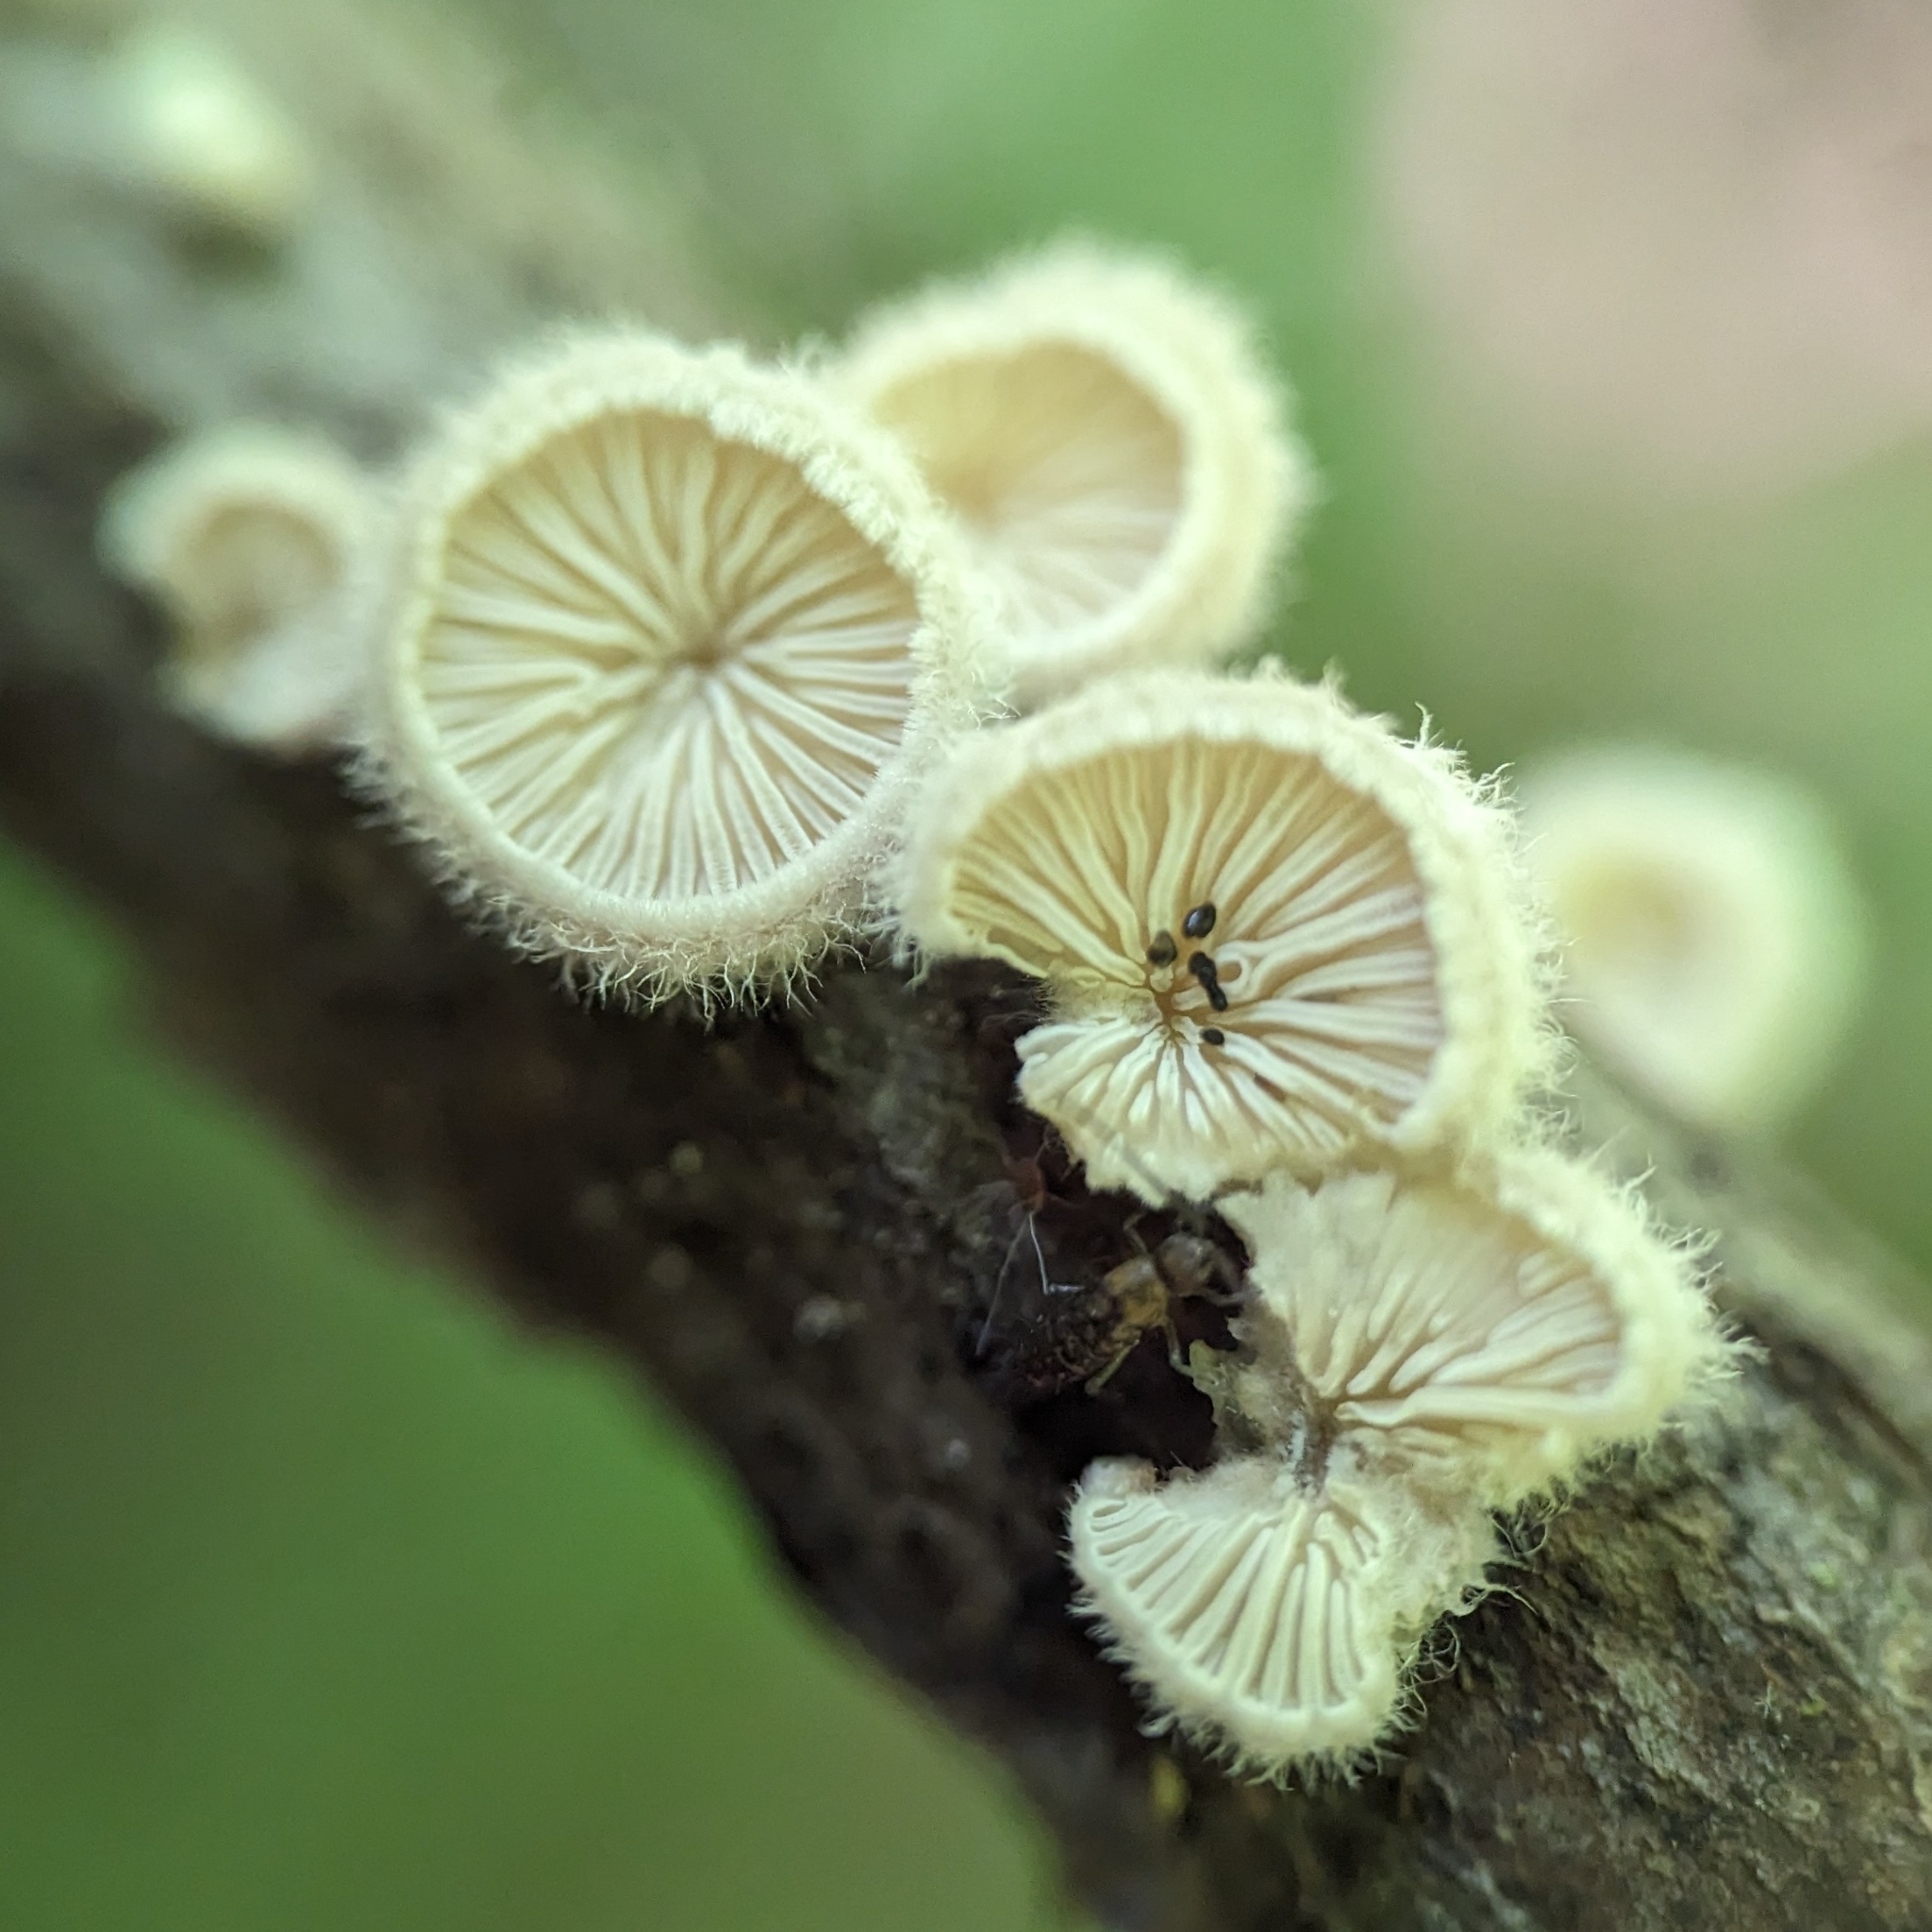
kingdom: Fungi
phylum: Basidiomycota
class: Agaricomycetes
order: Agaricales
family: Schizophyllaceae
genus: Schizophyllum
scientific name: Schizophyllum commune
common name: Common porecrust
